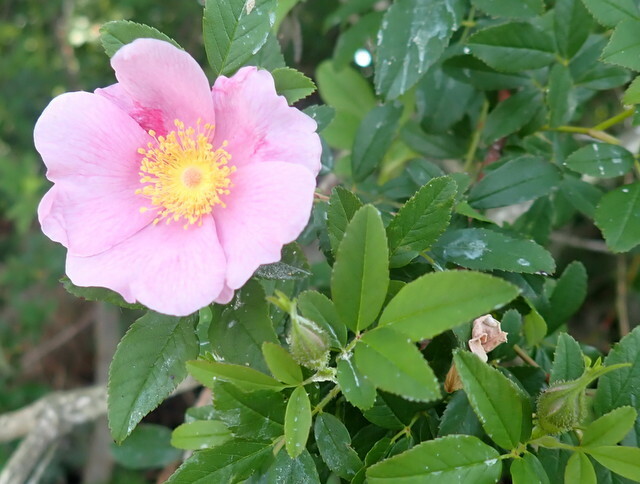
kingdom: Plantae
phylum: Tracheophyta
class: Magnoliopsida
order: Rosales
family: Rosaceae
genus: Rosa
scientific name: Rosa palustris
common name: Swamp rose
